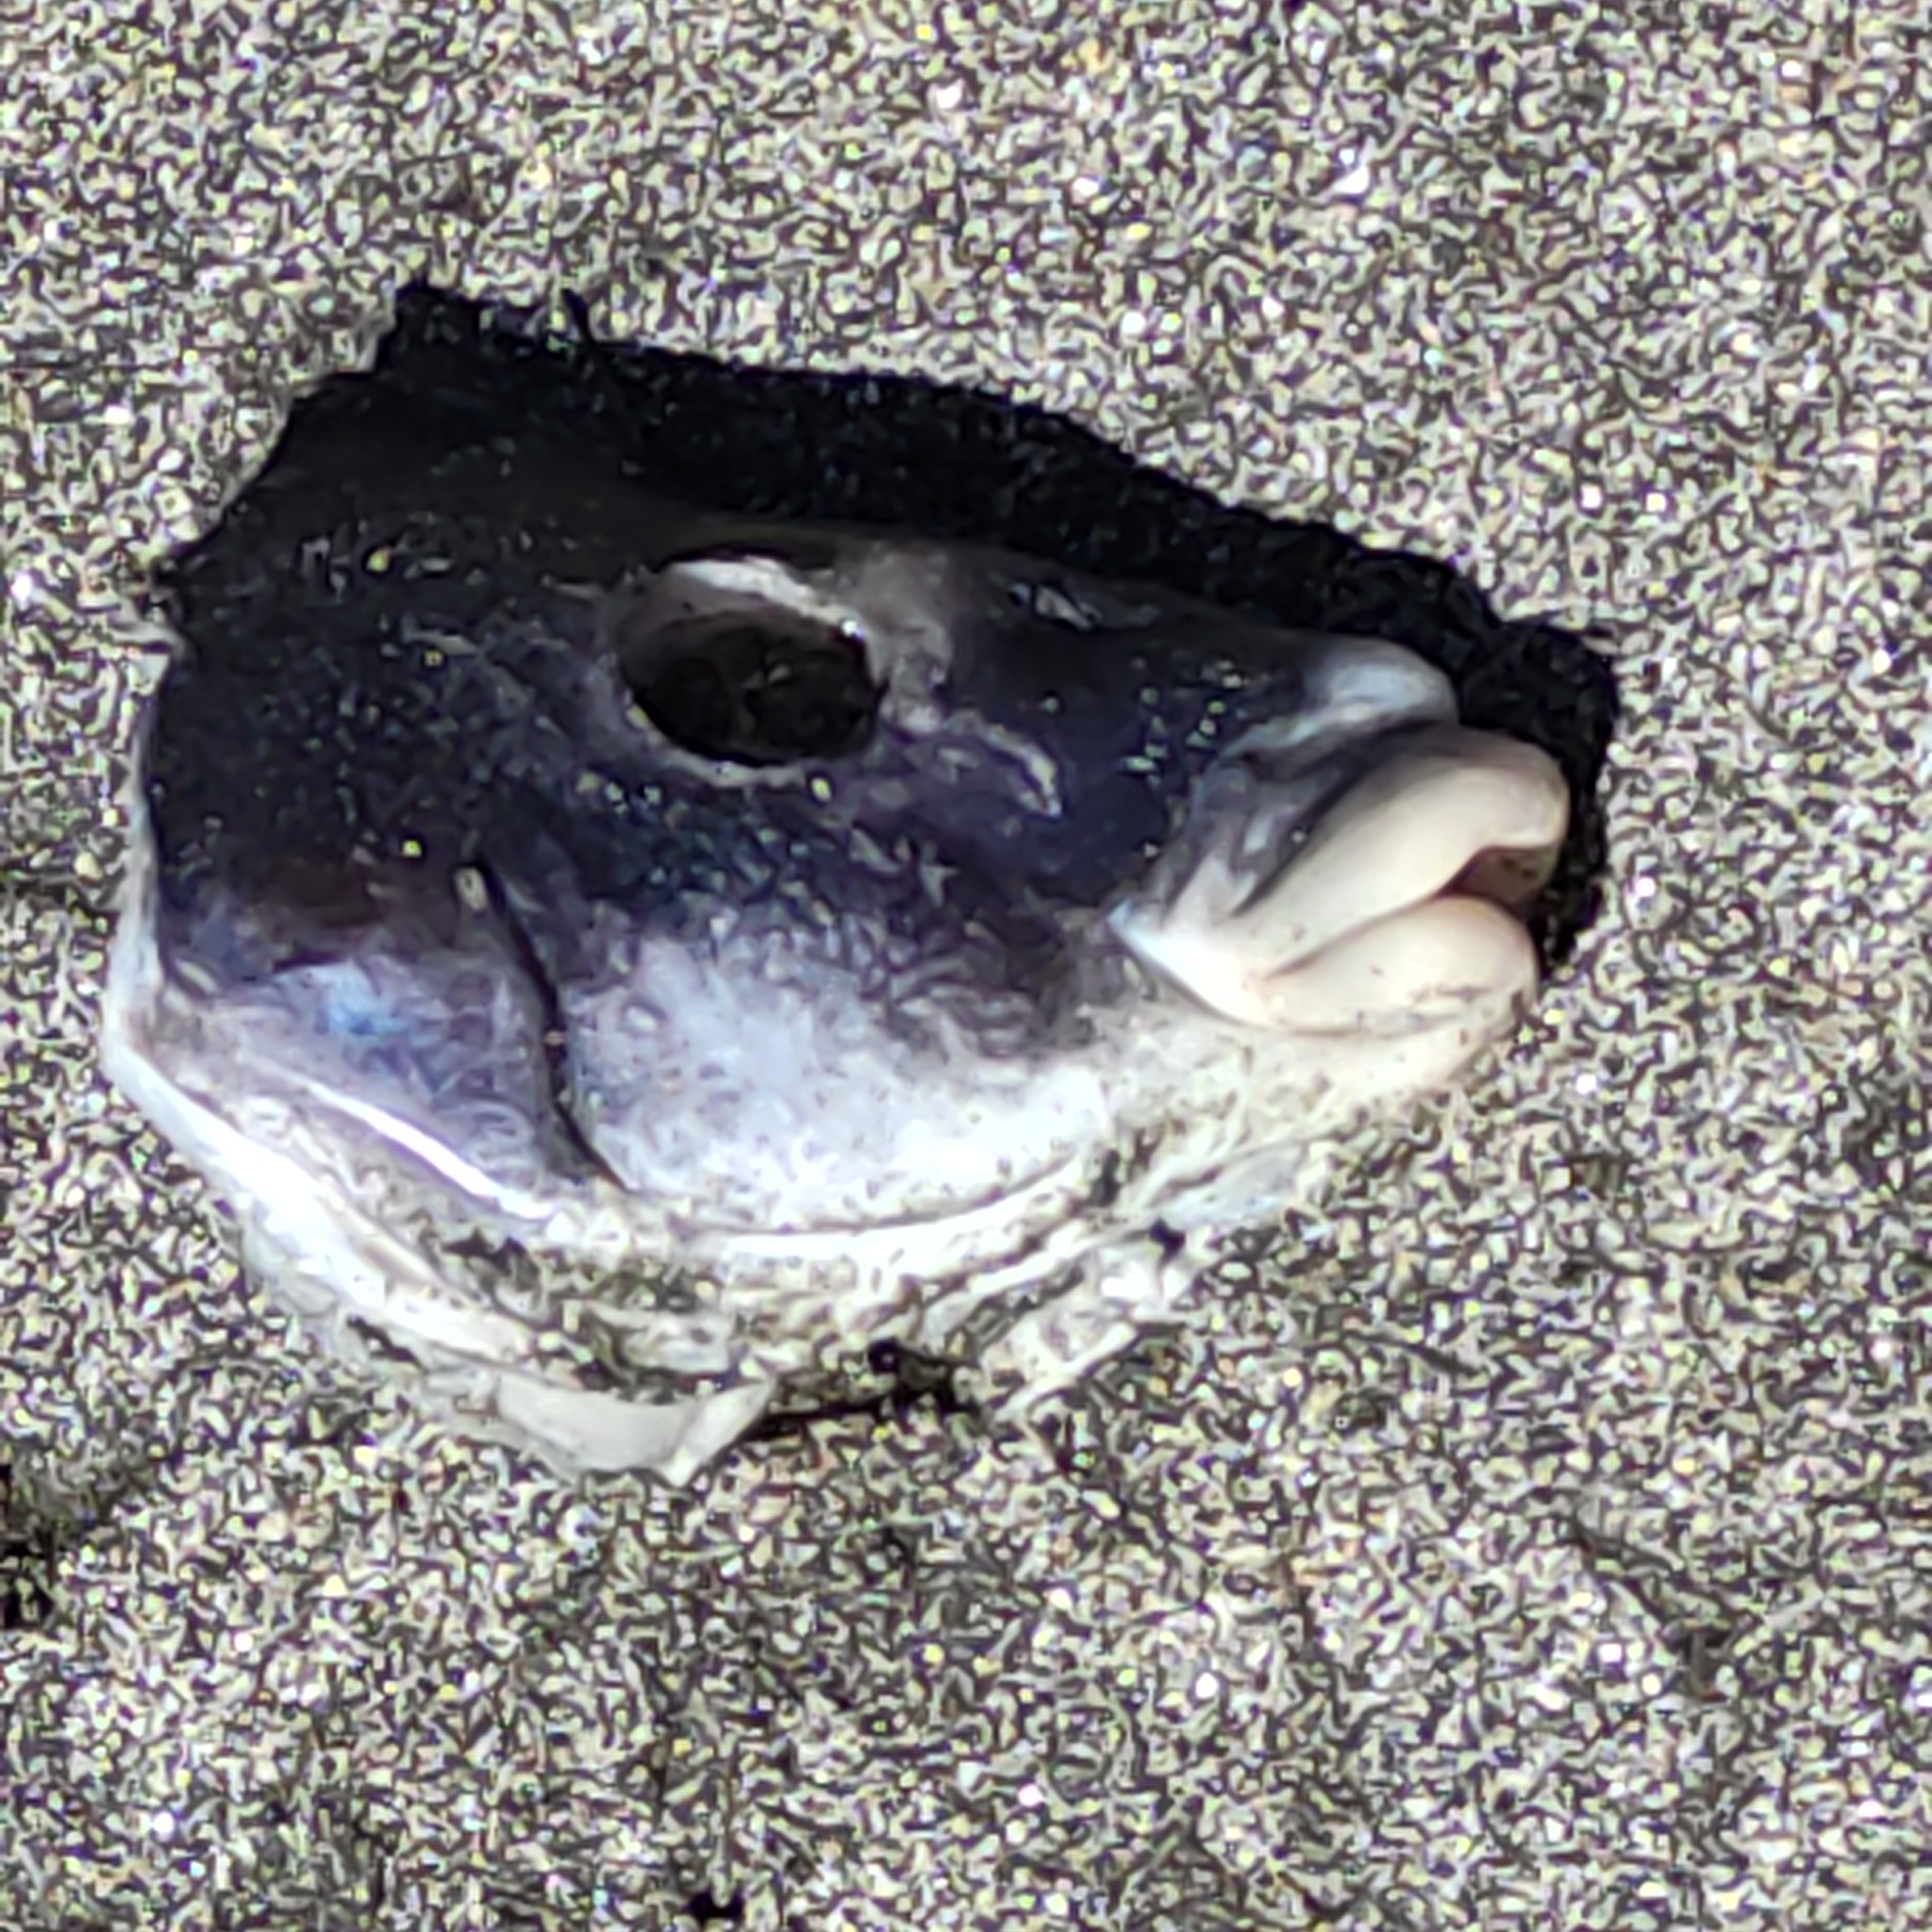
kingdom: Animalia
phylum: Chordata
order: Perciformes
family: Latridae
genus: Latridopsis
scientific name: Latridopsis ciliaris
